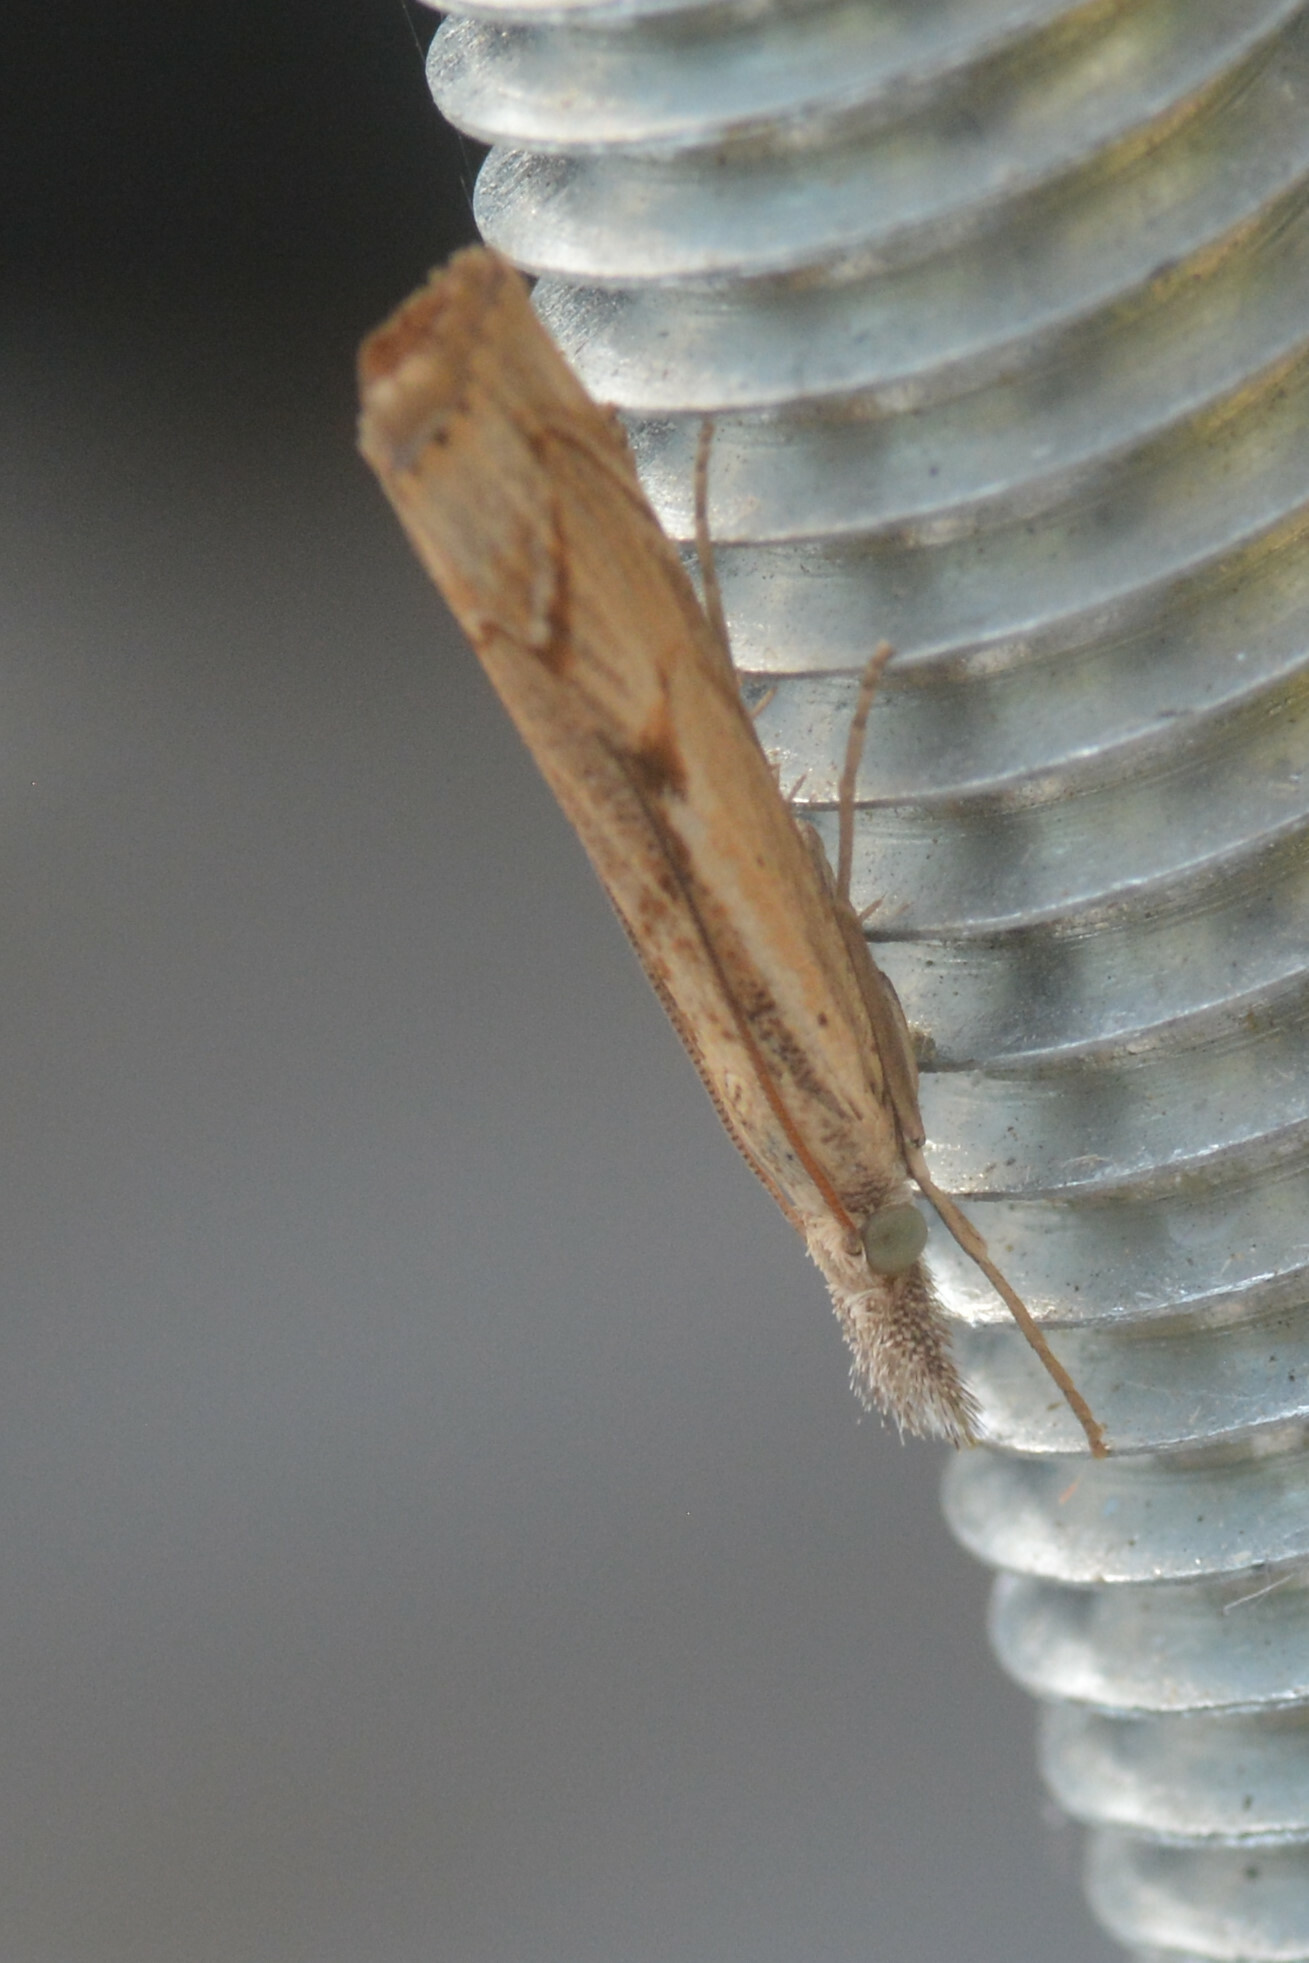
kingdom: Animalia
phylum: Arthropoda
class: Insecta
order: Lepidoptera
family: Crambidae
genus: Agriphila
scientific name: Agriphila geniculea
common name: Elbow-stripe grass-veneer
